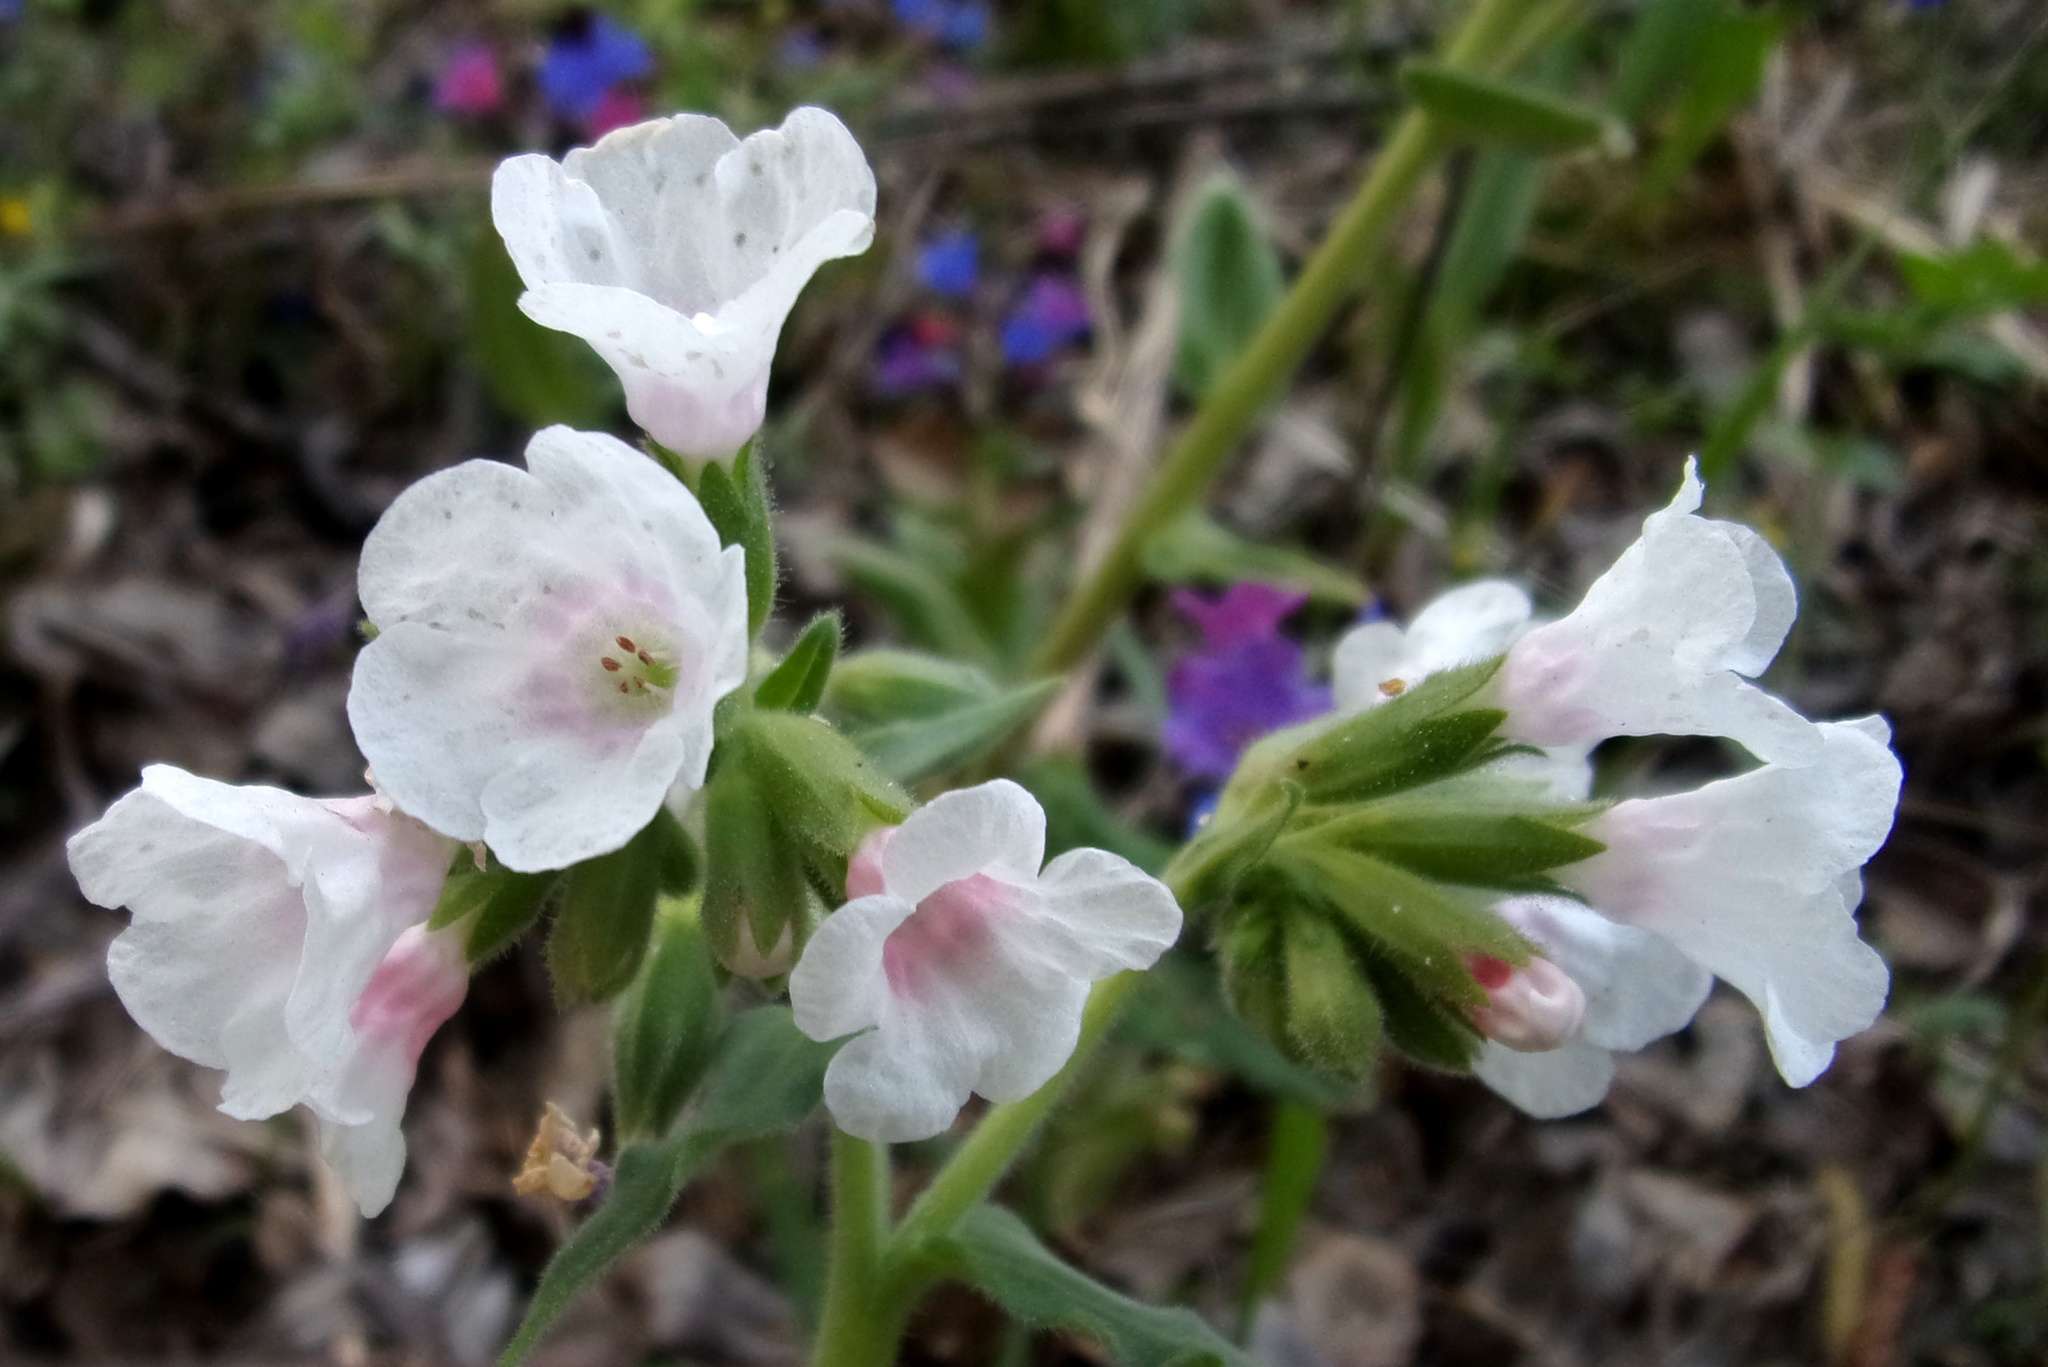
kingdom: Plantae
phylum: Tracheophyta
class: Magnoliopsida
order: Boraginales
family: Boraginaceae
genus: Pulmonaria
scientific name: Pulmonaria mollis
